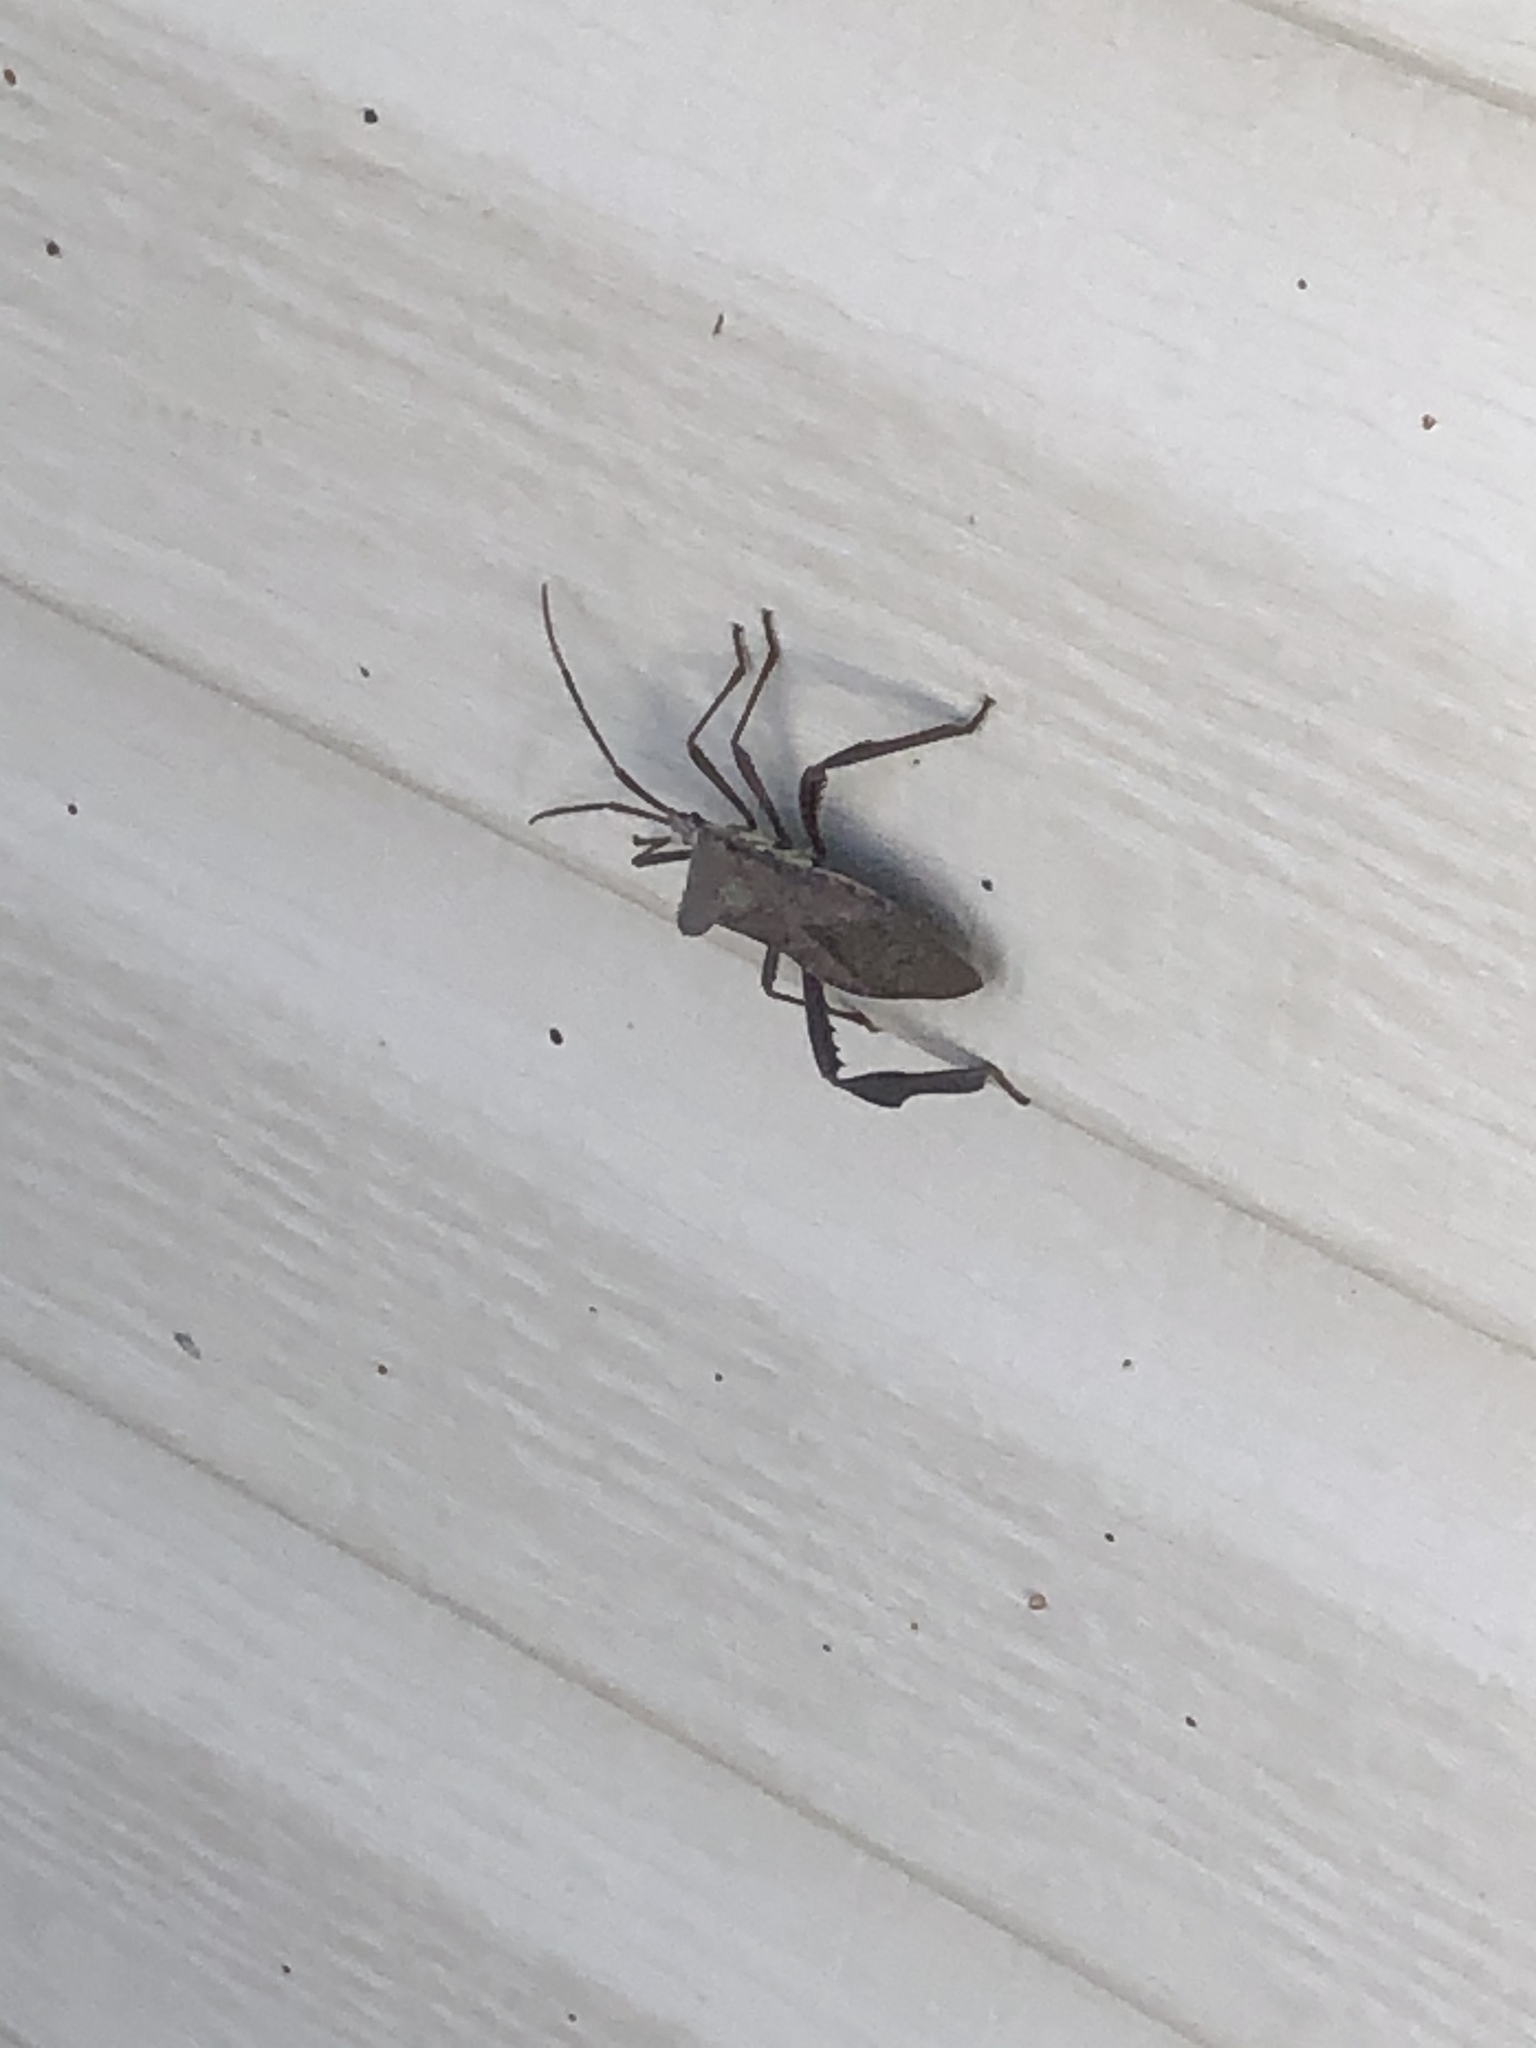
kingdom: Animalia
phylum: Arthropoda
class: Insecta
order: Hemiptera
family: Coreidae
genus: Acanthocephala
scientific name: Acanthocephala declivis
